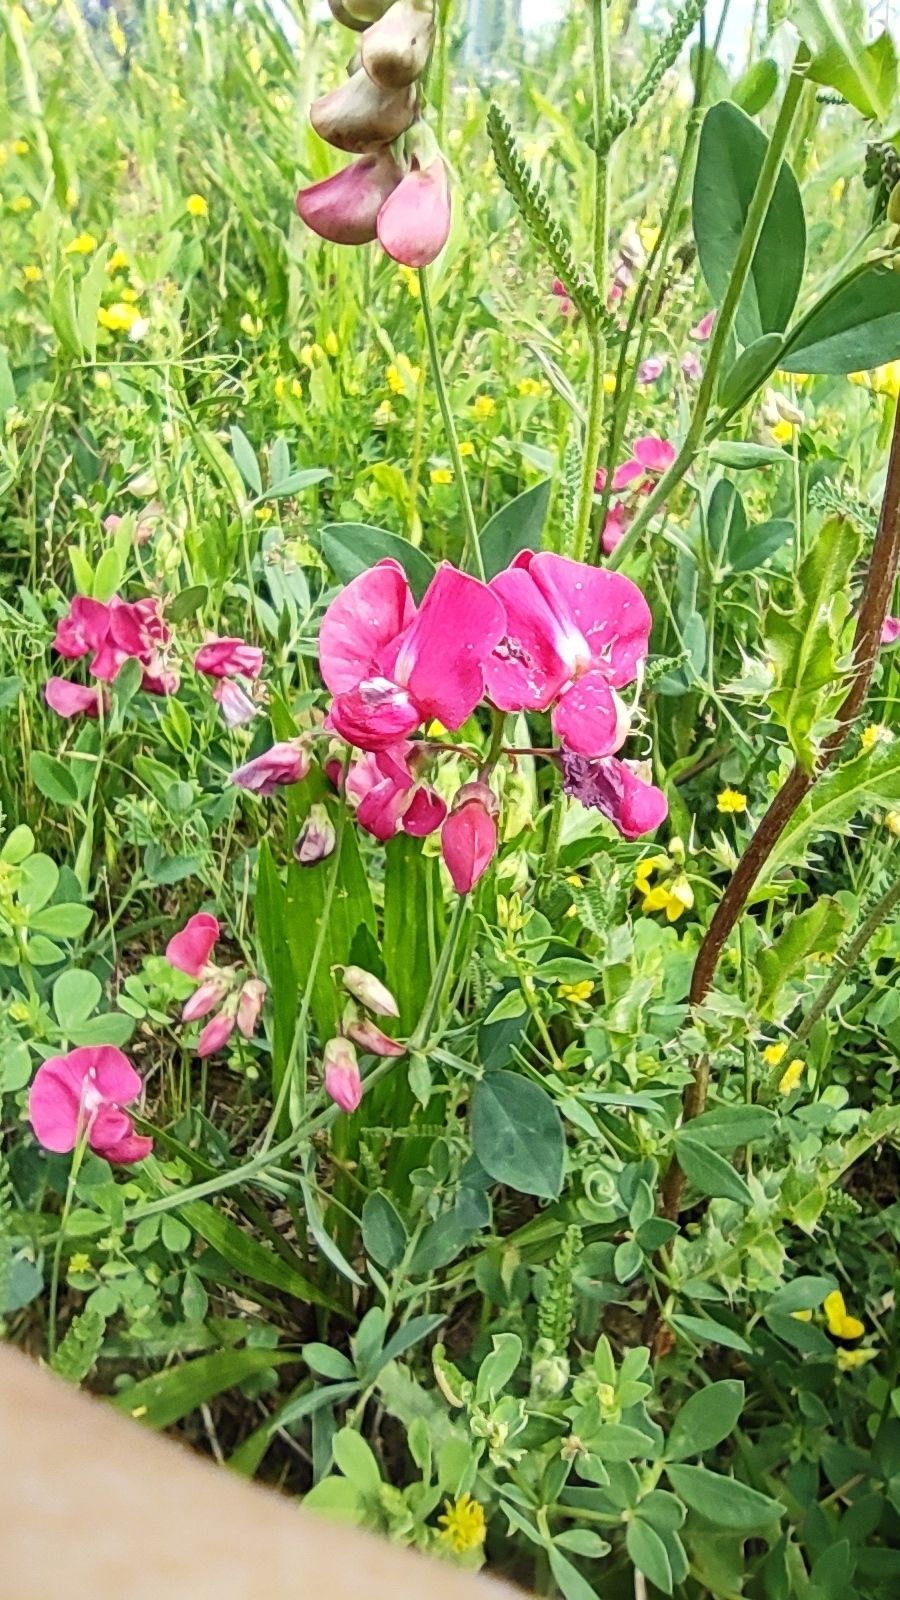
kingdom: Plantae
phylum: Tracheophyta
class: Magnoliopsida
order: Fabales
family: Fabaceae
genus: Lathyrus
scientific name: Lathyrus tuberosus
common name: Tuberous pea
